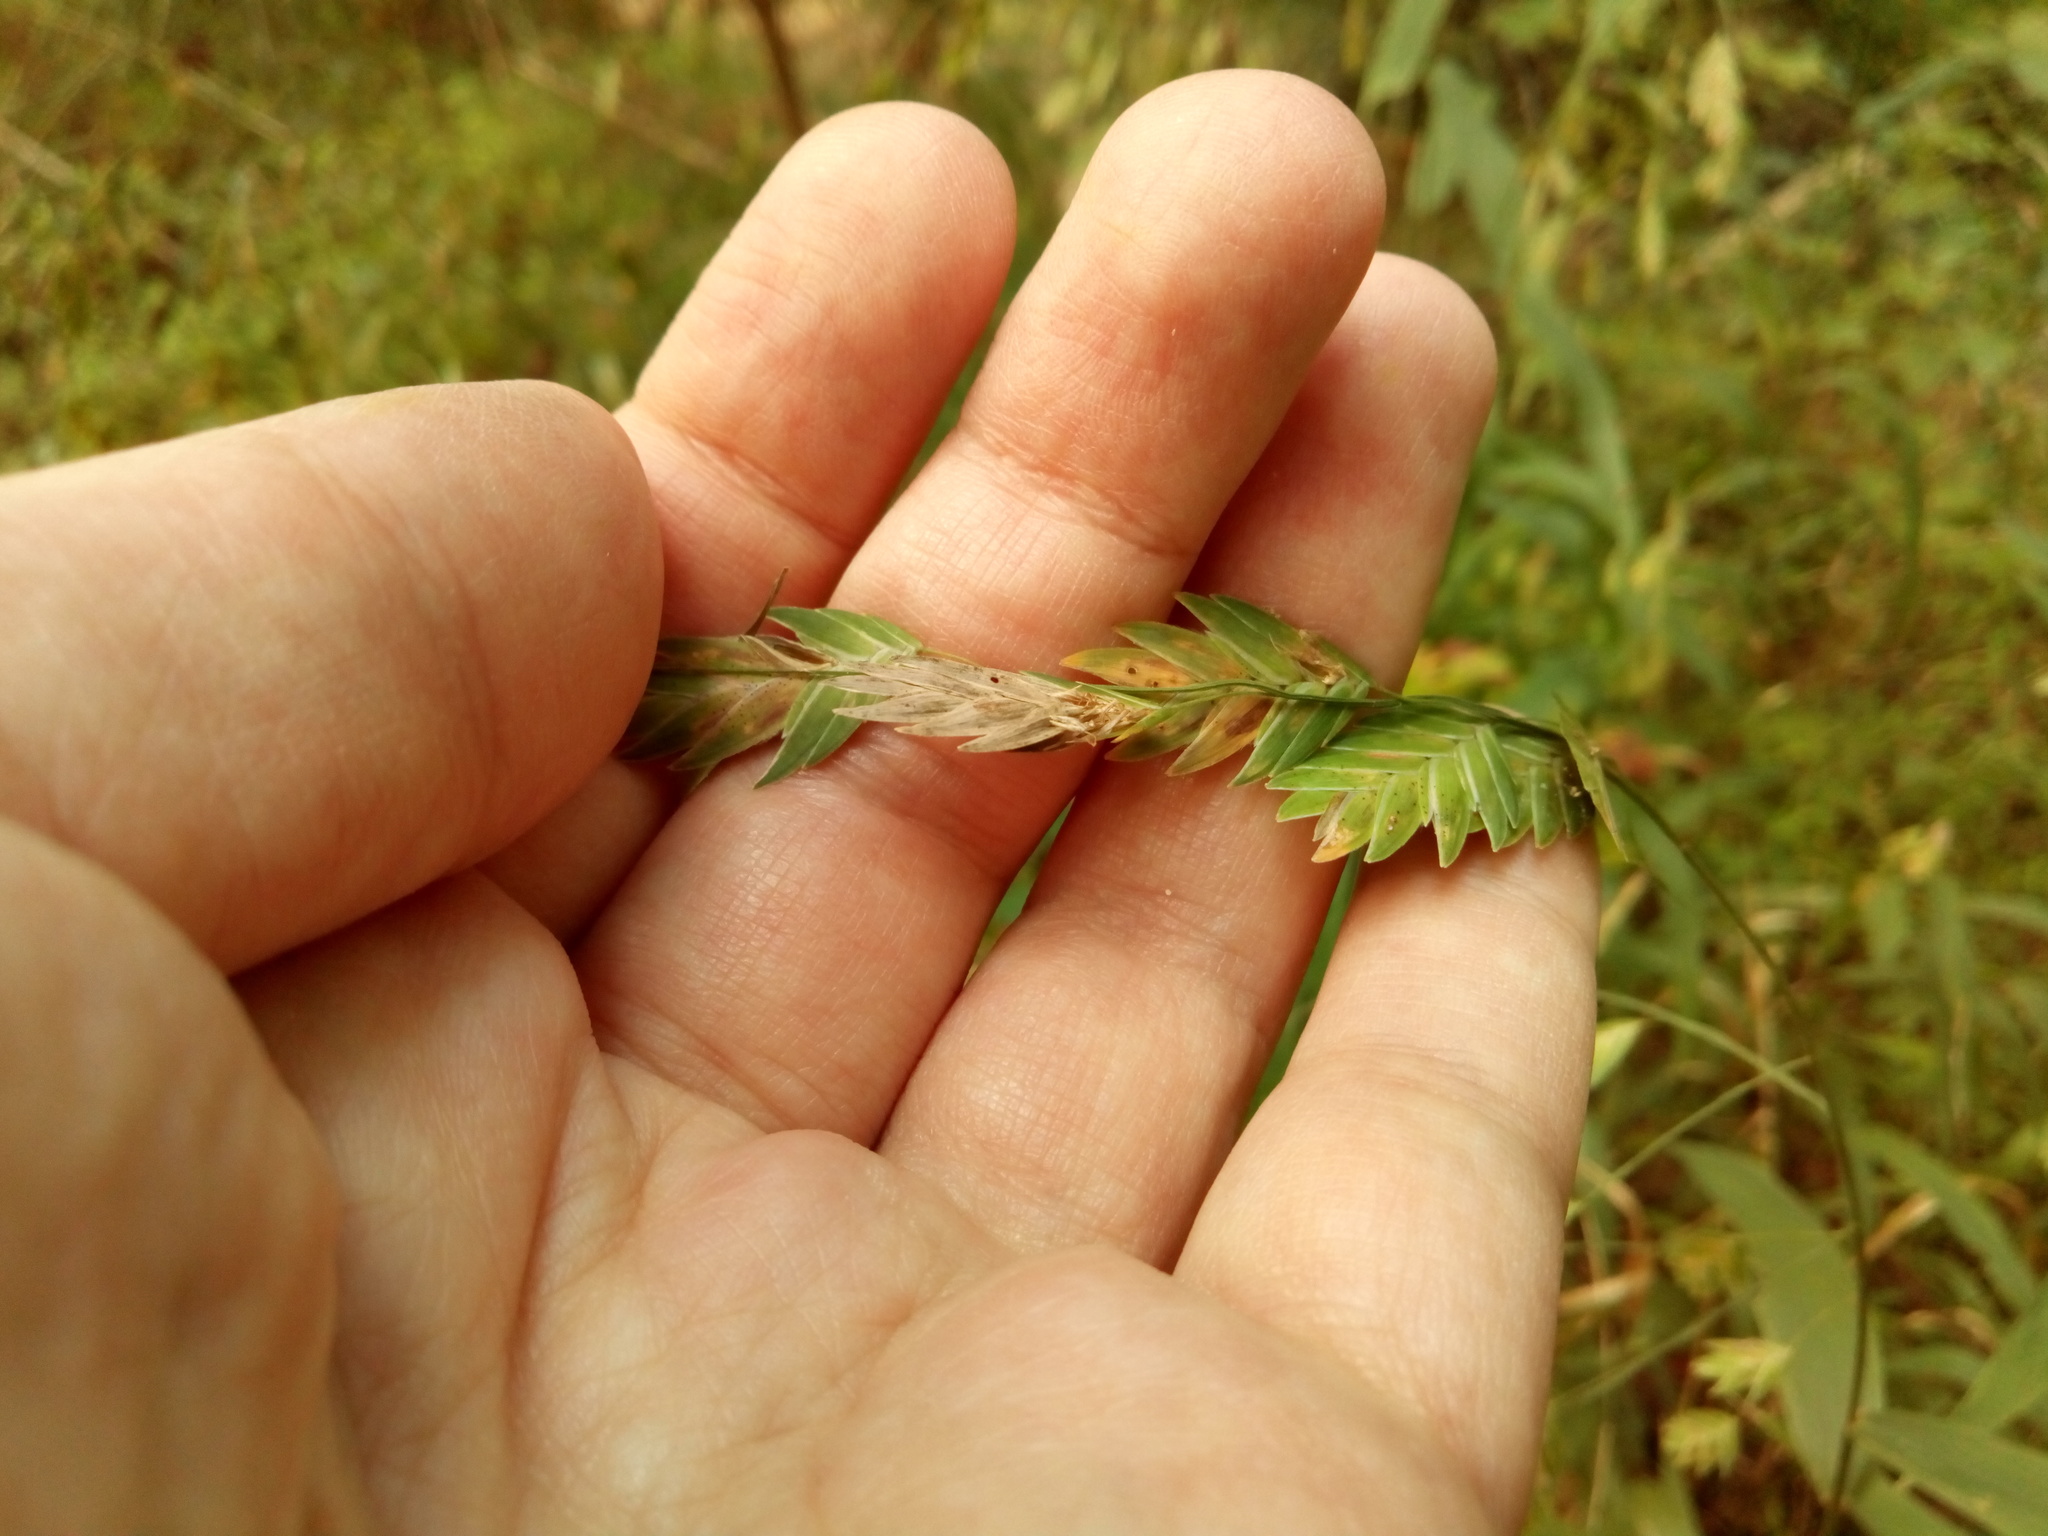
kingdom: Plantae
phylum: Tracheophyta
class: Liliopsida
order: Poales
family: Poaceae
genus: Chasmanthium
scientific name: Chasmanthium latifolium
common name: Broad-leaved chasmanthium
